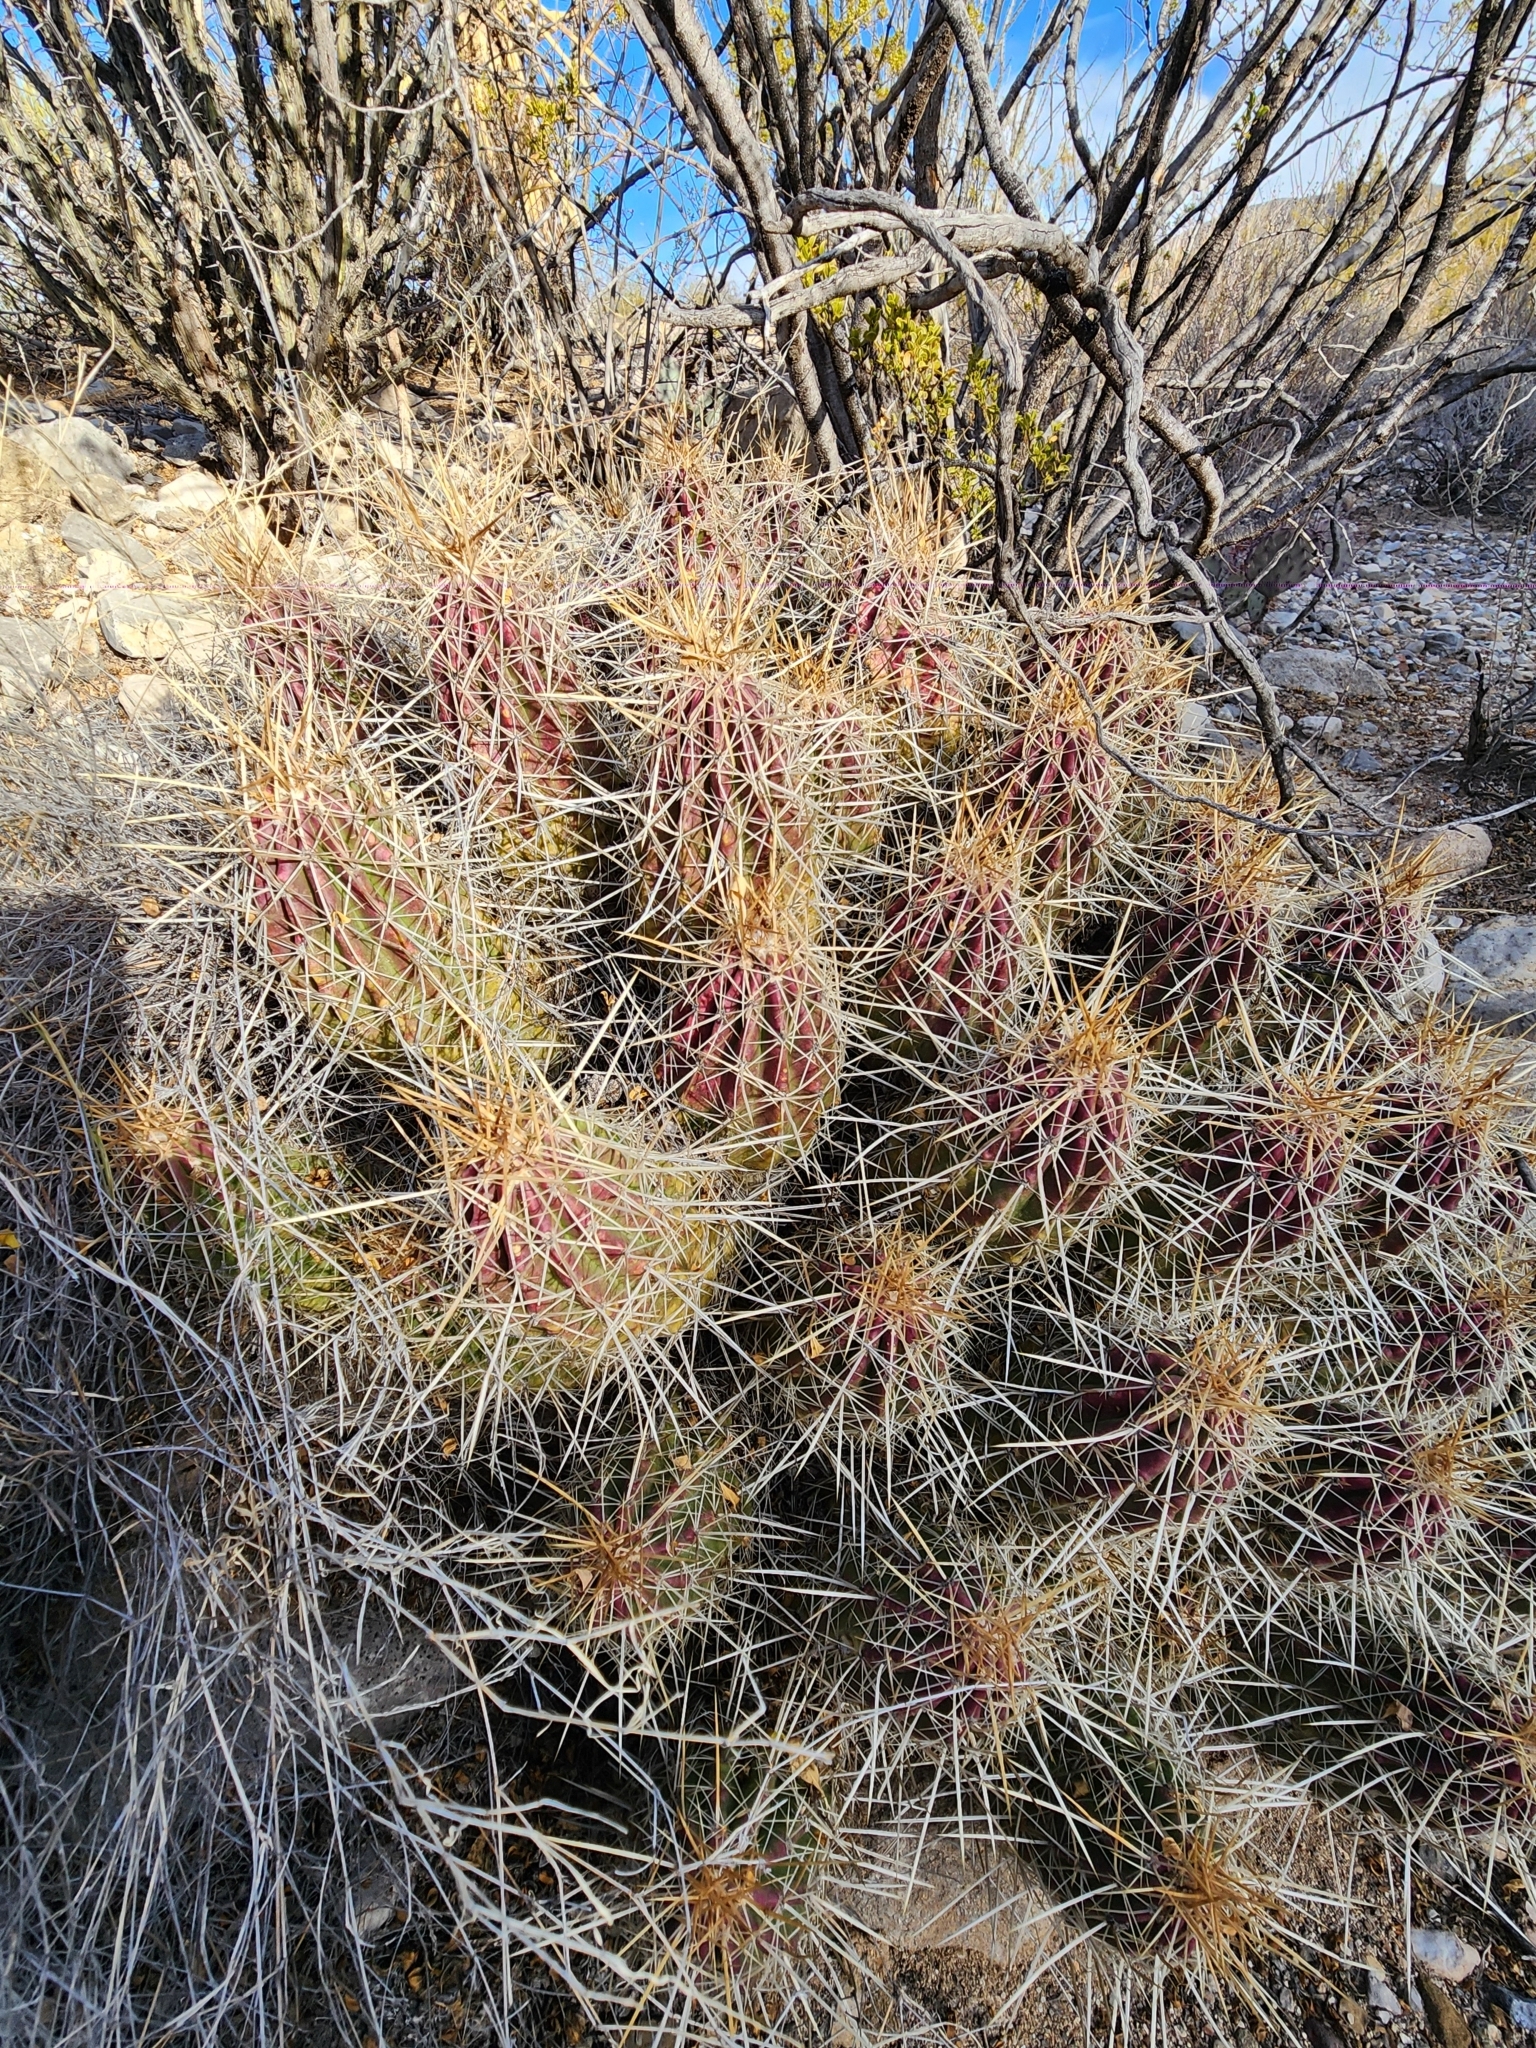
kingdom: Plantae
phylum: Tracheophyta
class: Magnoliopsida
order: Caryophyllales
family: Cactaceae
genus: Echinocereus
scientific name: Echinocereus stramineus
